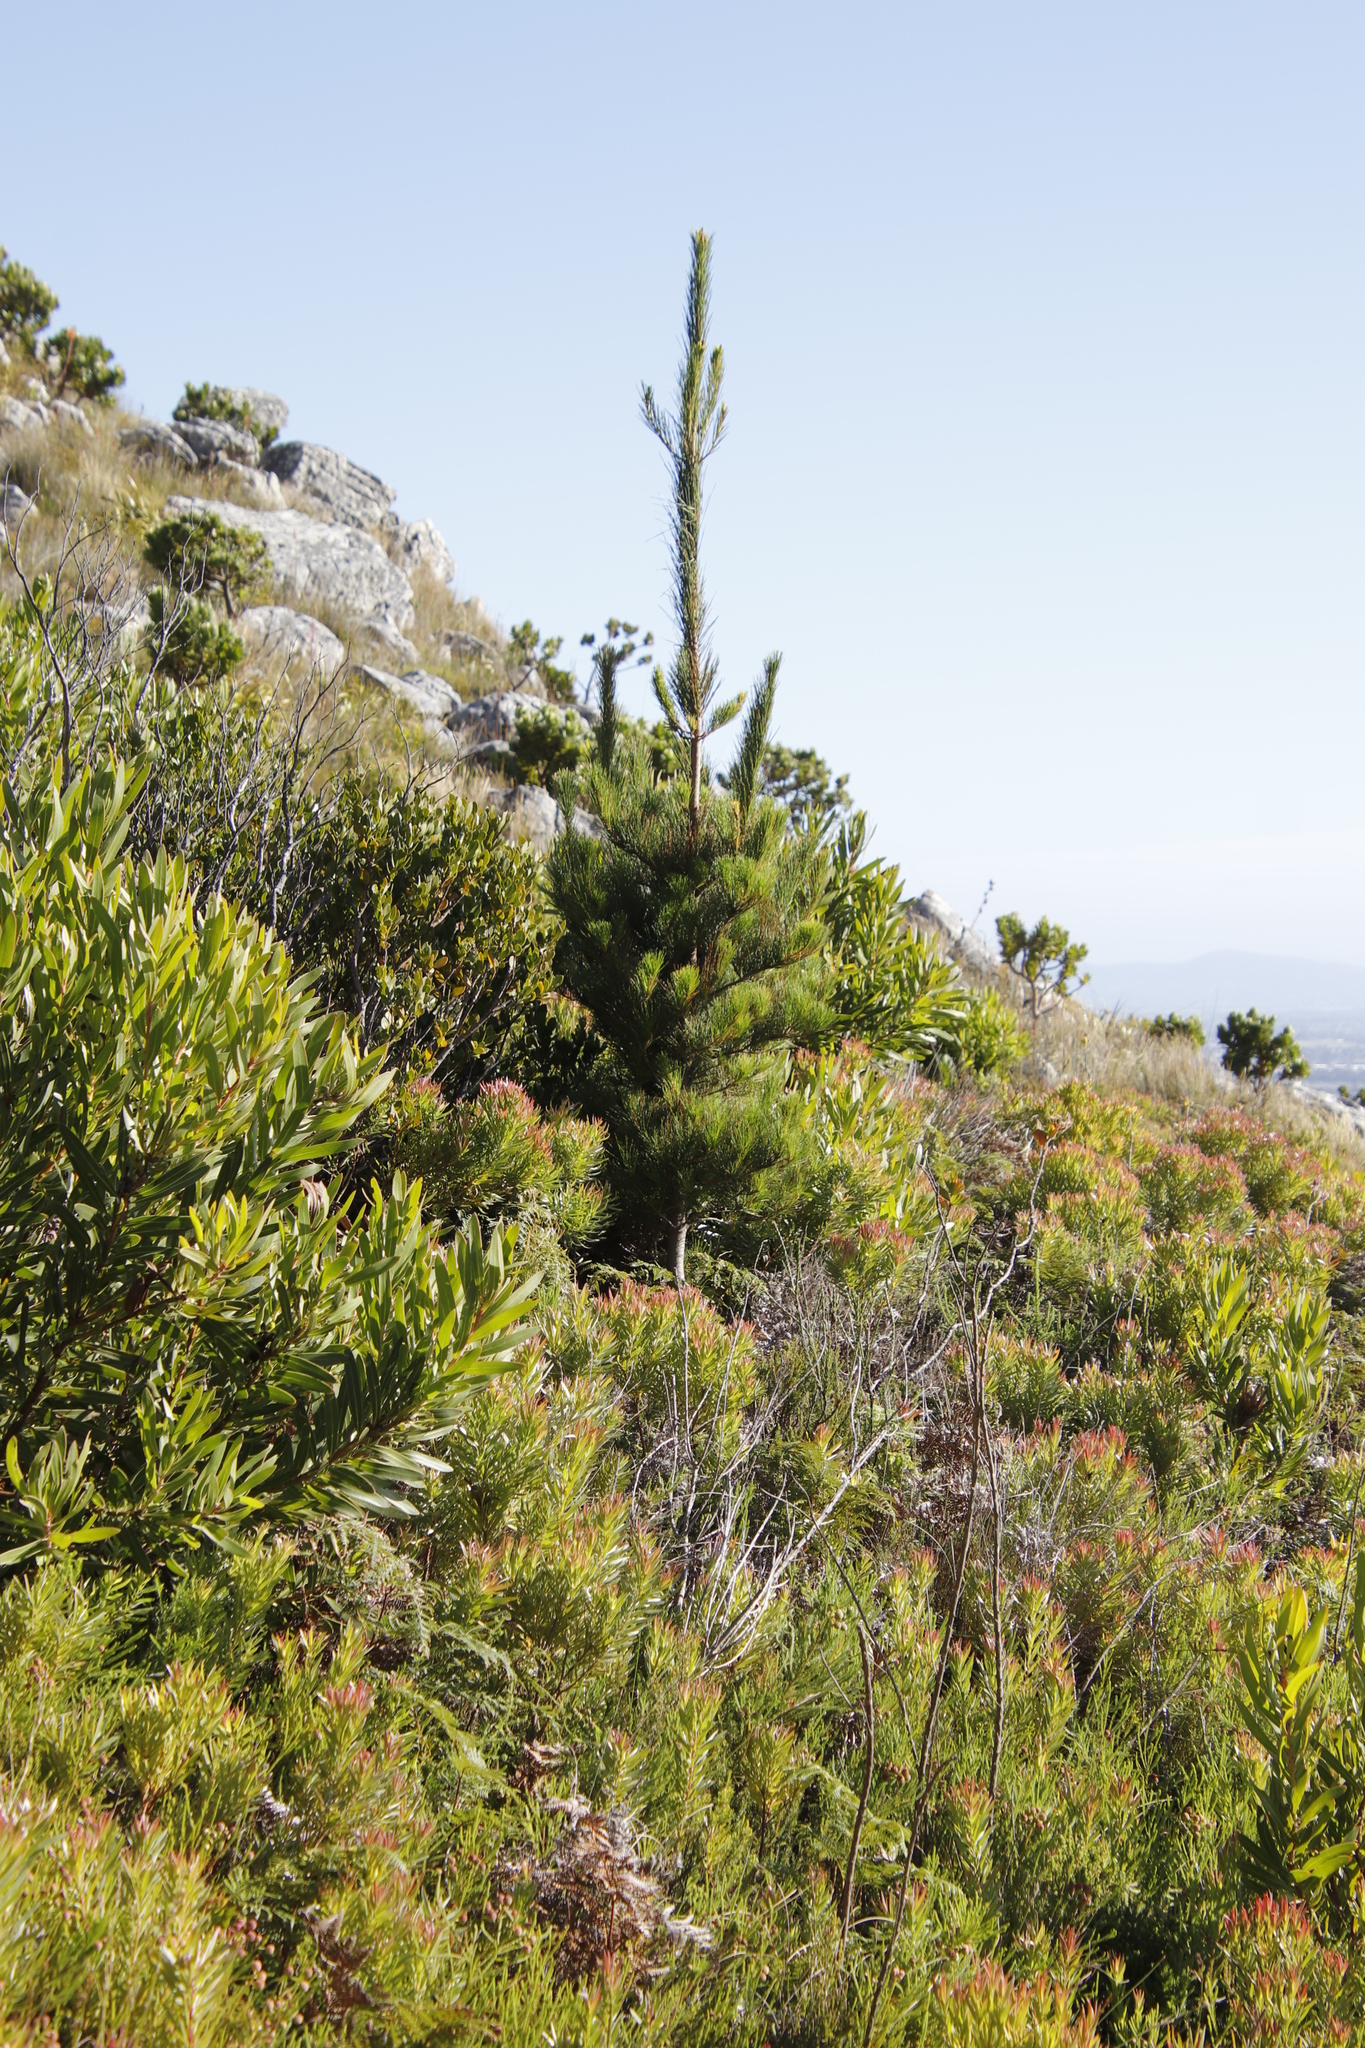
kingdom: Plantae
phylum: Tracheophyta
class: Pinopsida
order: Pinales
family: Pinaceae
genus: Pinus
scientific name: Pinus radiata
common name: Monterey pine
